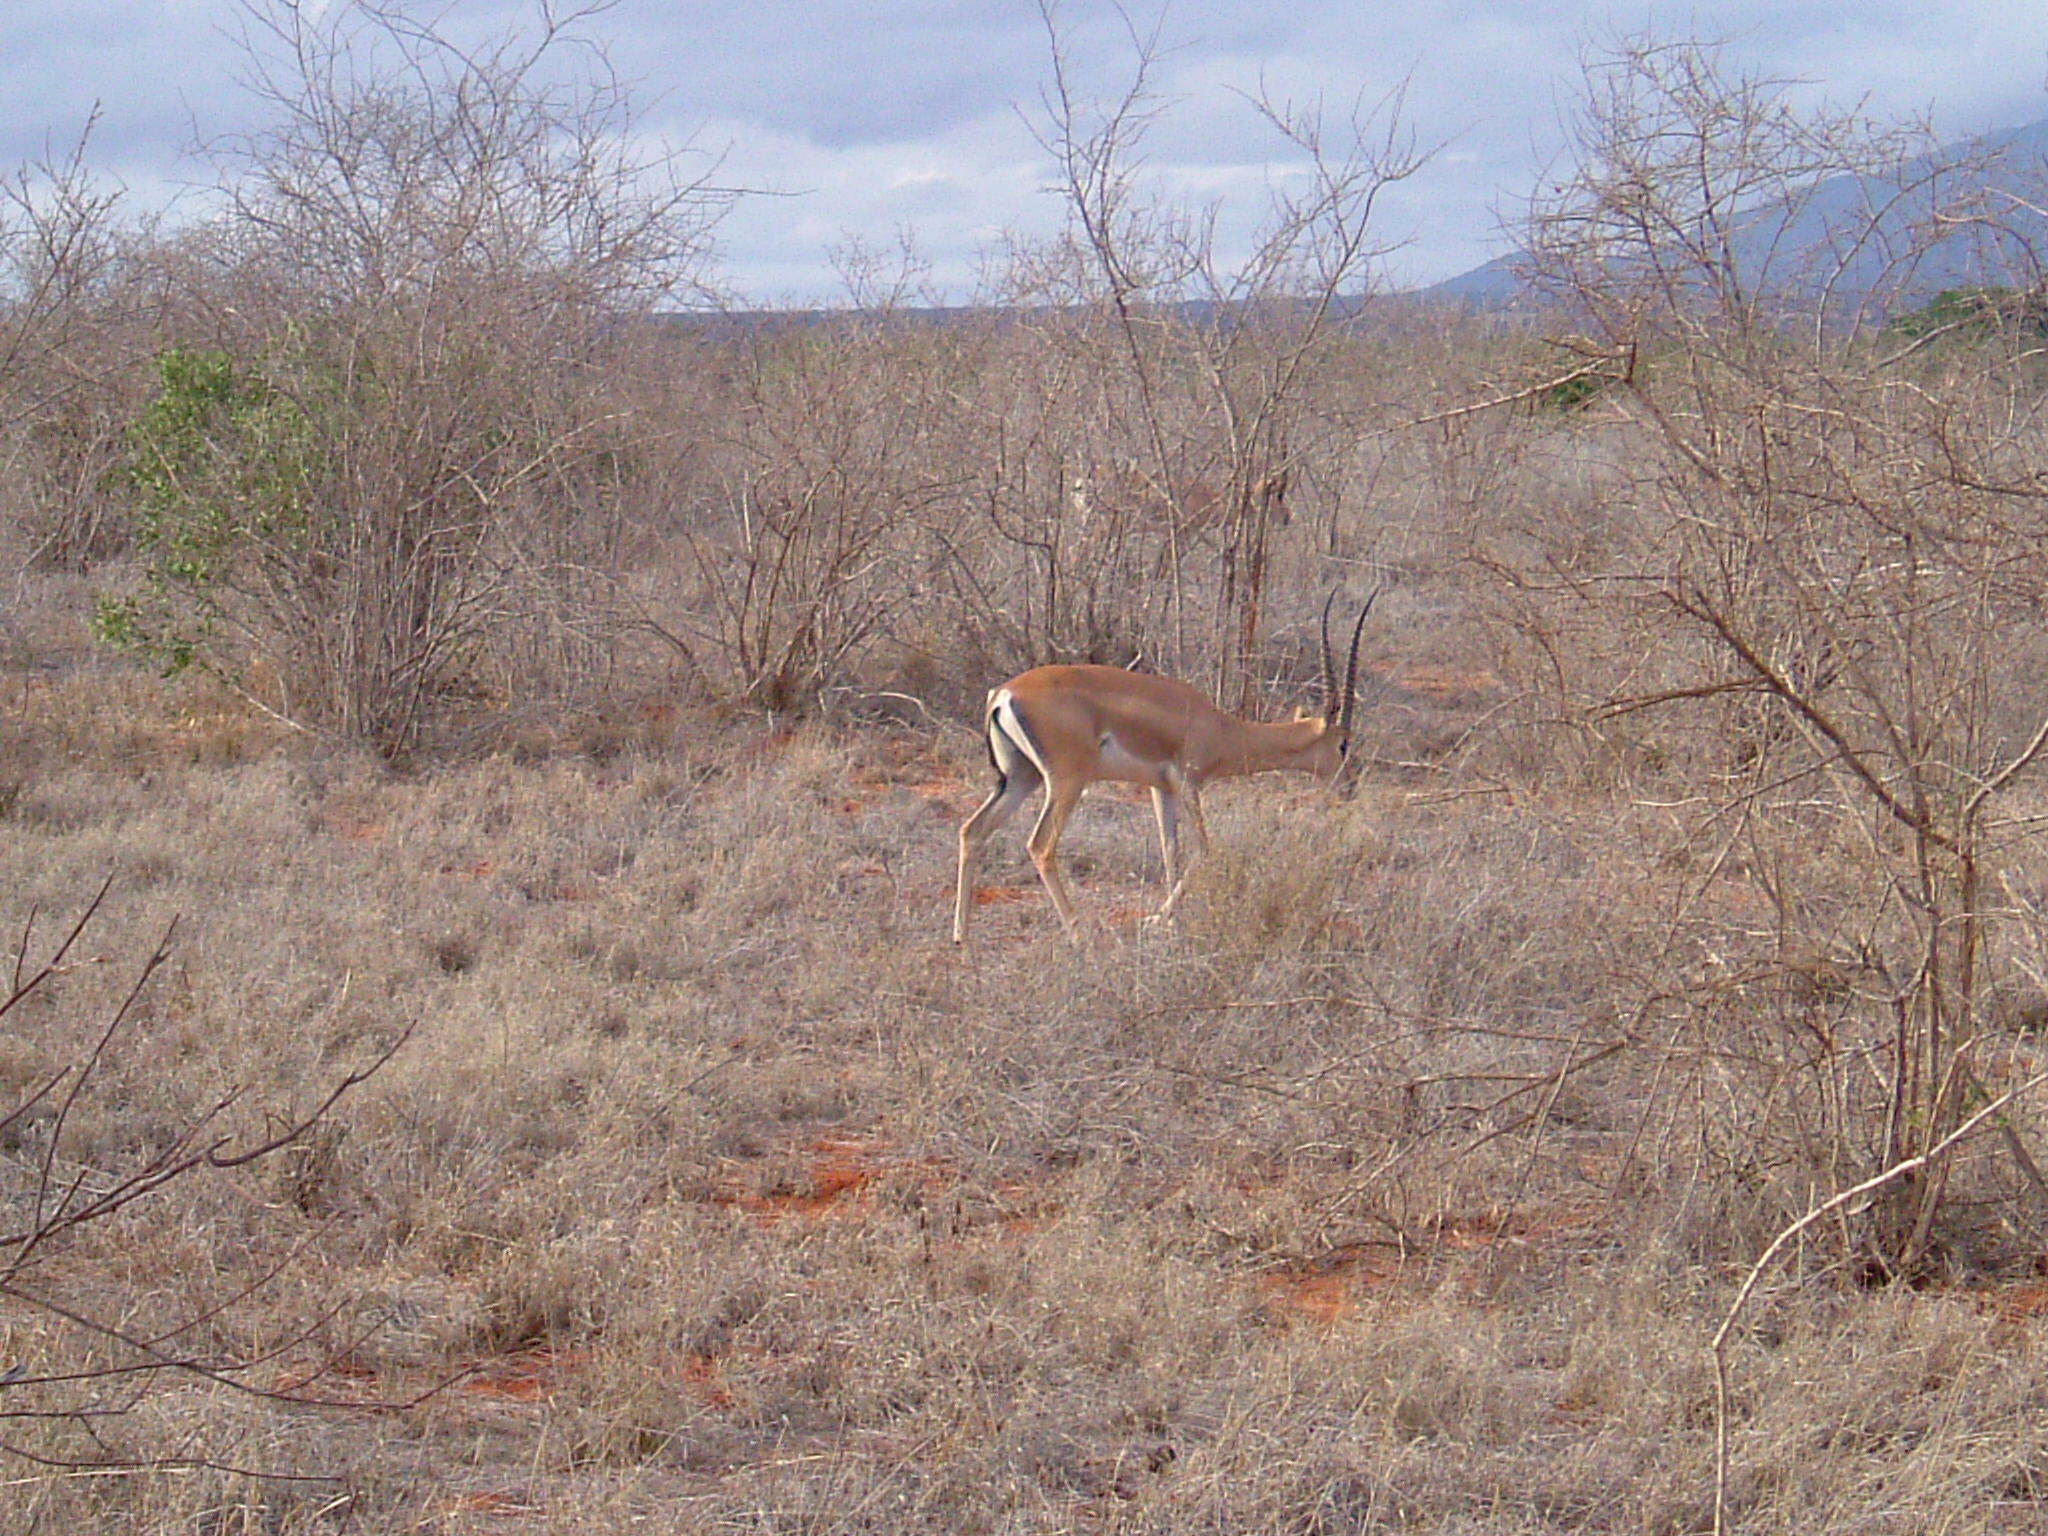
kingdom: Animalia
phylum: Chordata
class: Mammalia
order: Artiodactyla
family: Bovidae
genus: Nanger
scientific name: Nanger granti
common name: Grant's gazelle
